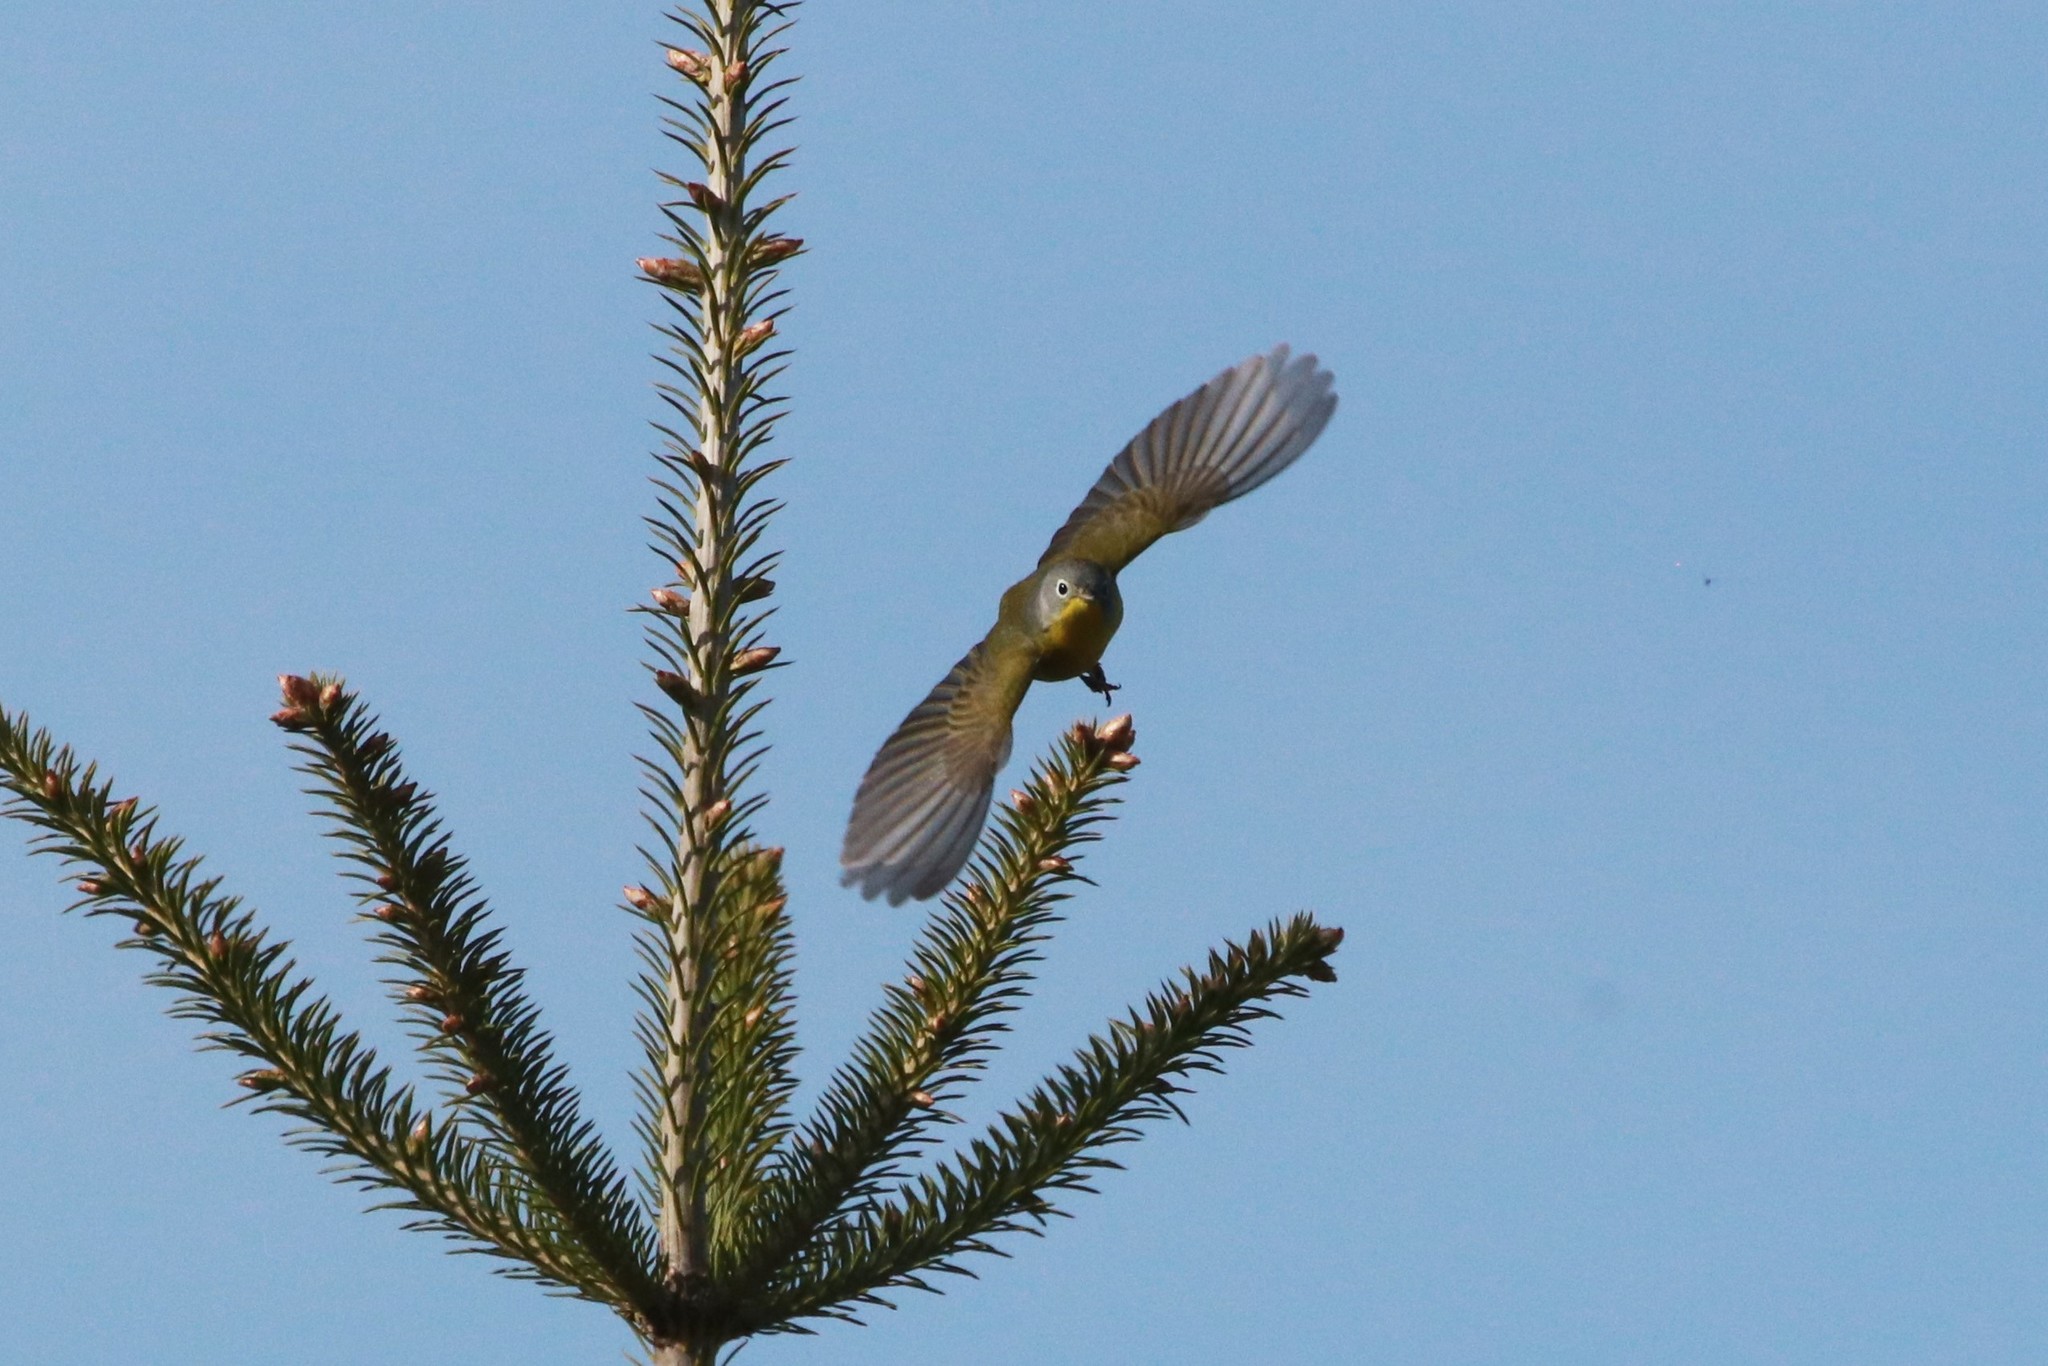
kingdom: Animalia
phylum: Chordata
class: Aves
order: Passeriformes
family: Parulidae
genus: Leiothlypis
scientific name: Leiothlypis ruficapilla
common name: Nashville warbler
